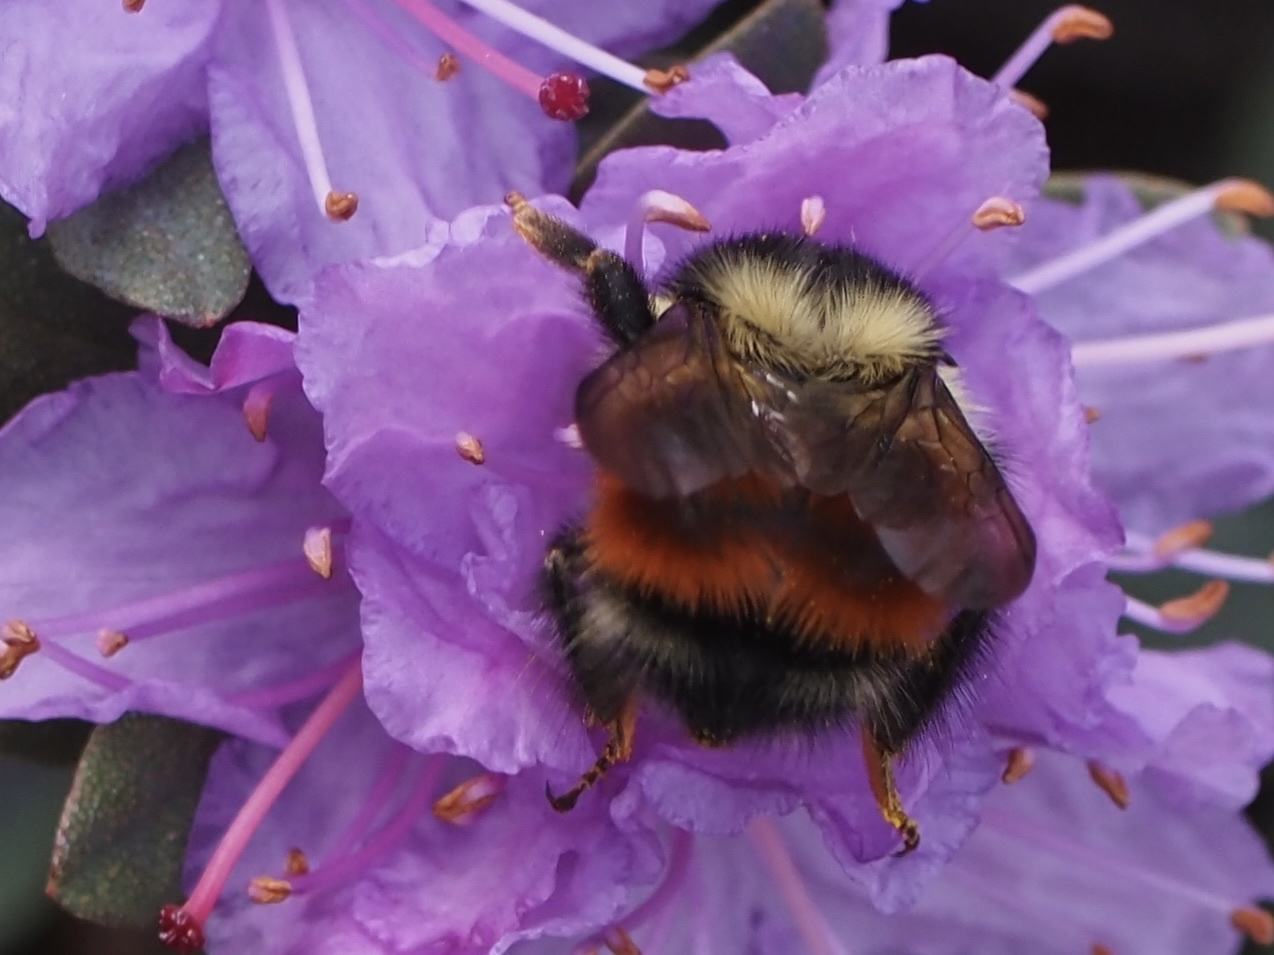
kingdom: Animalia
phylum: Arthropoda
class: Insecta
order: Hymenoptera
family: Apidae
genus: Bombus
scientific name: Bombus melanopygus
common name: Black tail bumble bee
